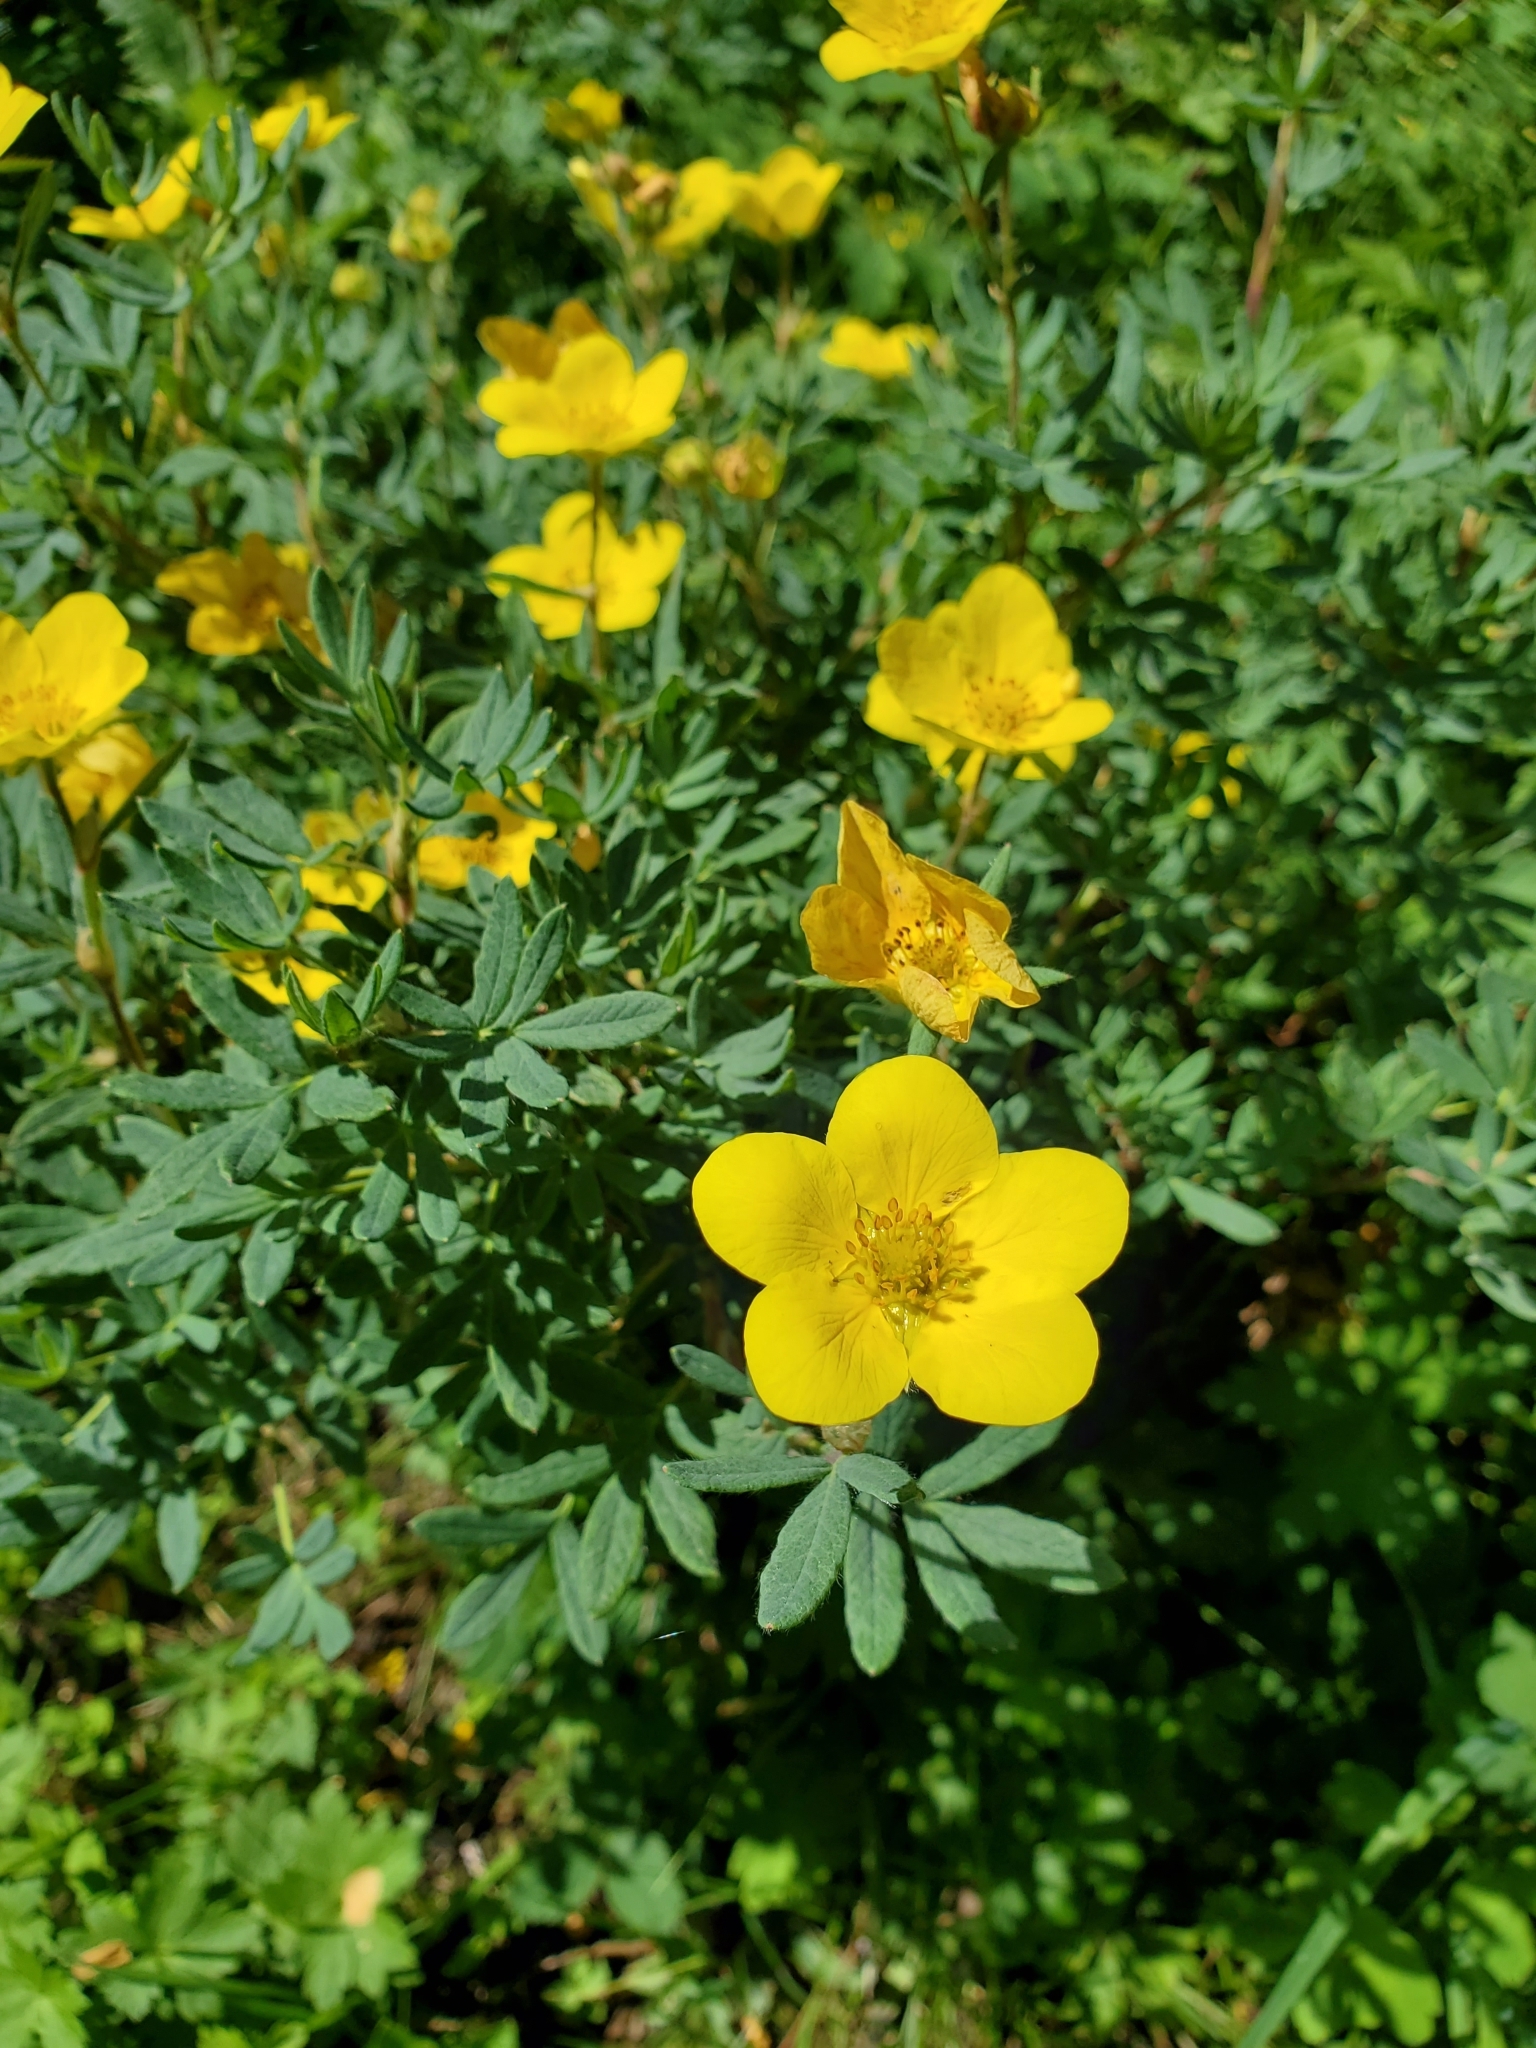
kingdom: Plantae
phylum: Tracheophyta
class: Magnoliopsida
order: Rosales
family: Rosaceae
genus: Dasiphora
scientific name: Dasiphora fruticosa
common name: Shrubby cinquefoil
